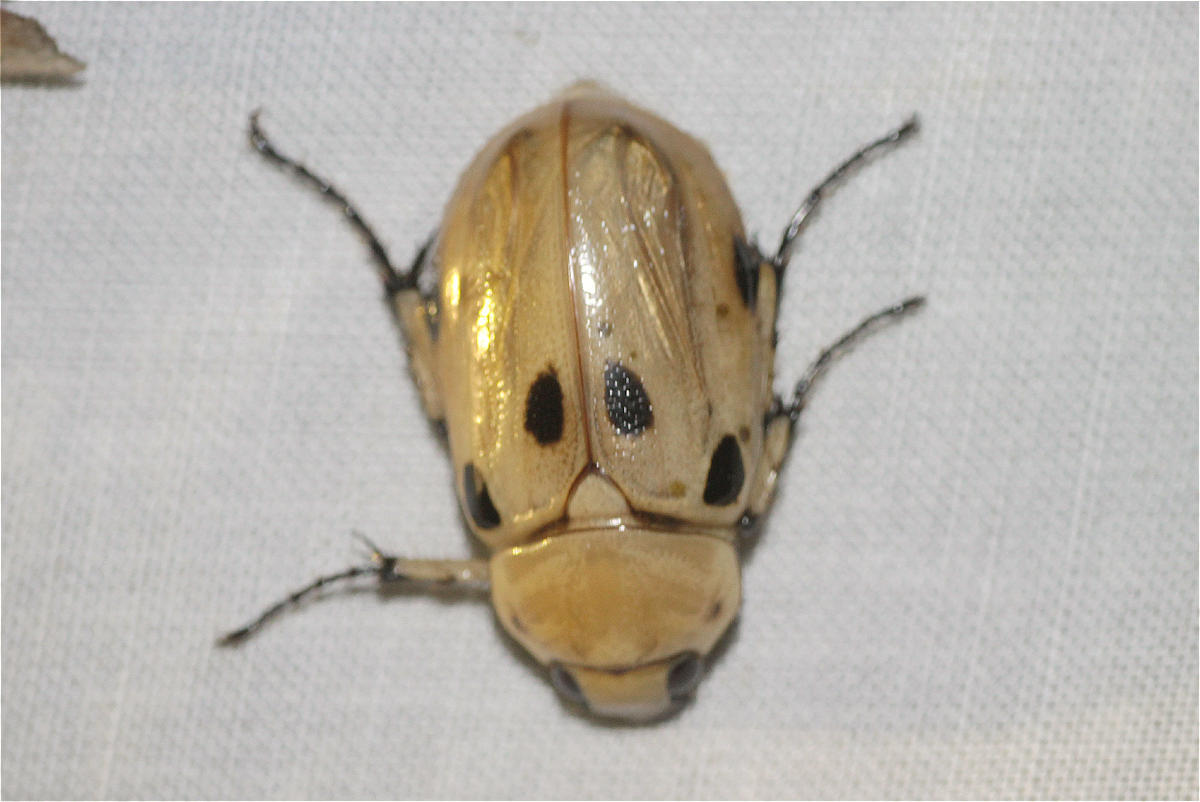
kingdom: Animalia
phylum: Arthropoda
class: Insecta
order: Coleoptera
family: Scarabaeidae
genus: Ancognatha
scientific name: Ancognatha vulgaris
